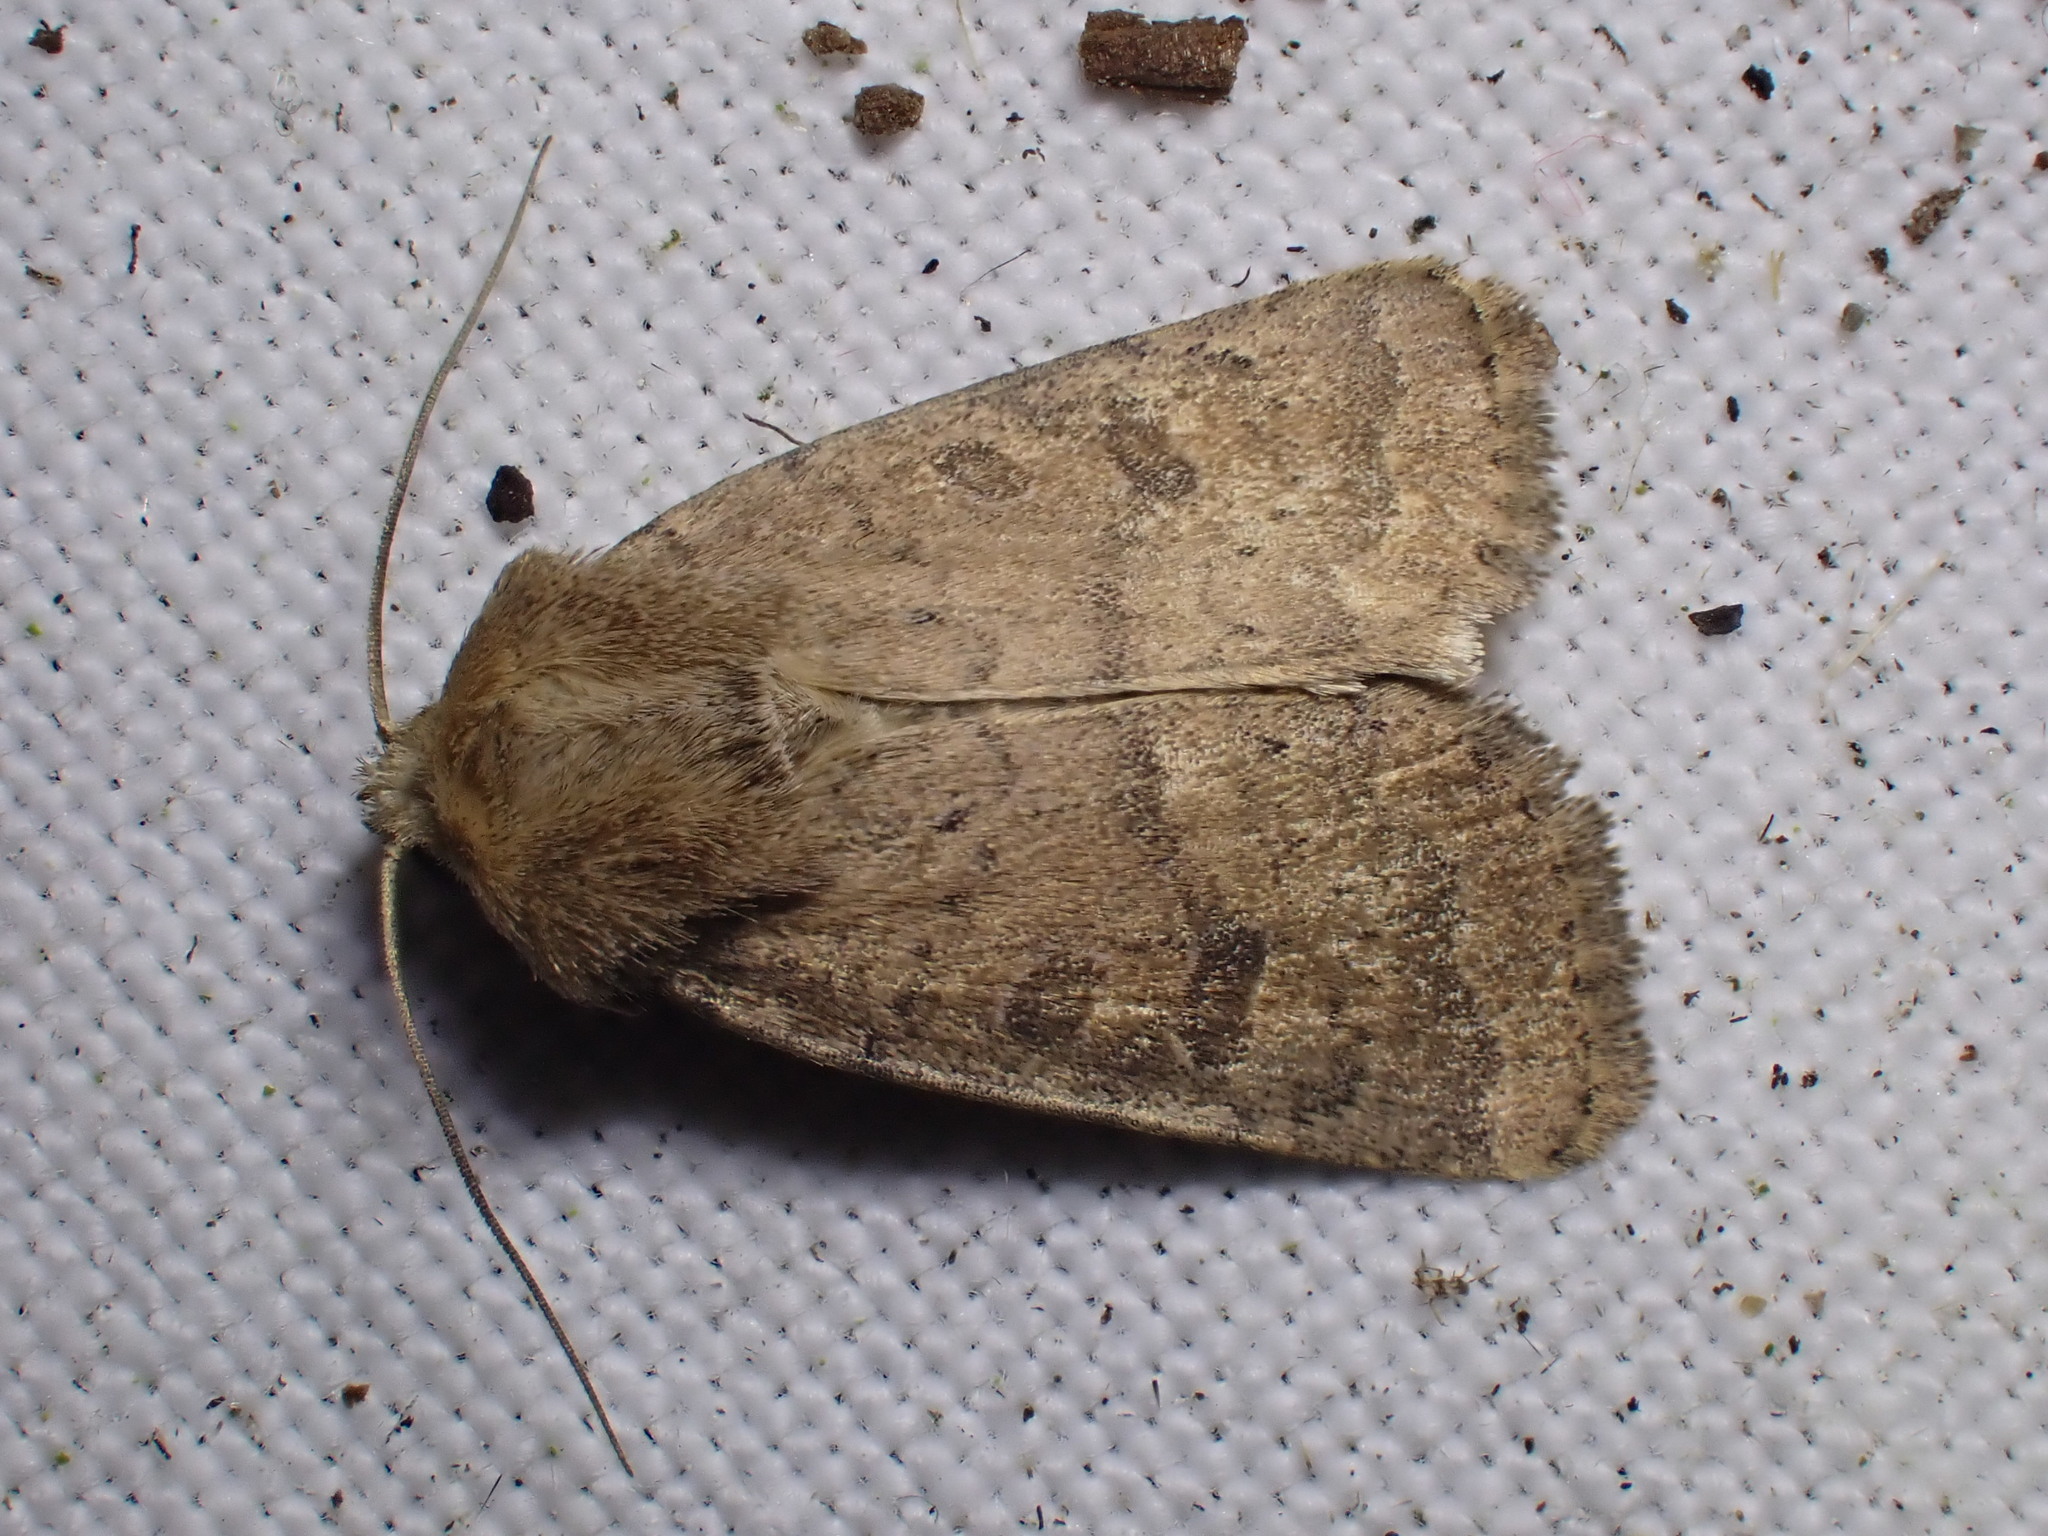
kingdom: Animalia
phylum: Arthropoda
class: Insecta
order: Lepidoptera
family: Noctuidae
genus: Hoplodrina
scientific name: Hoplodrina octogenaria
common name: Uncertain
